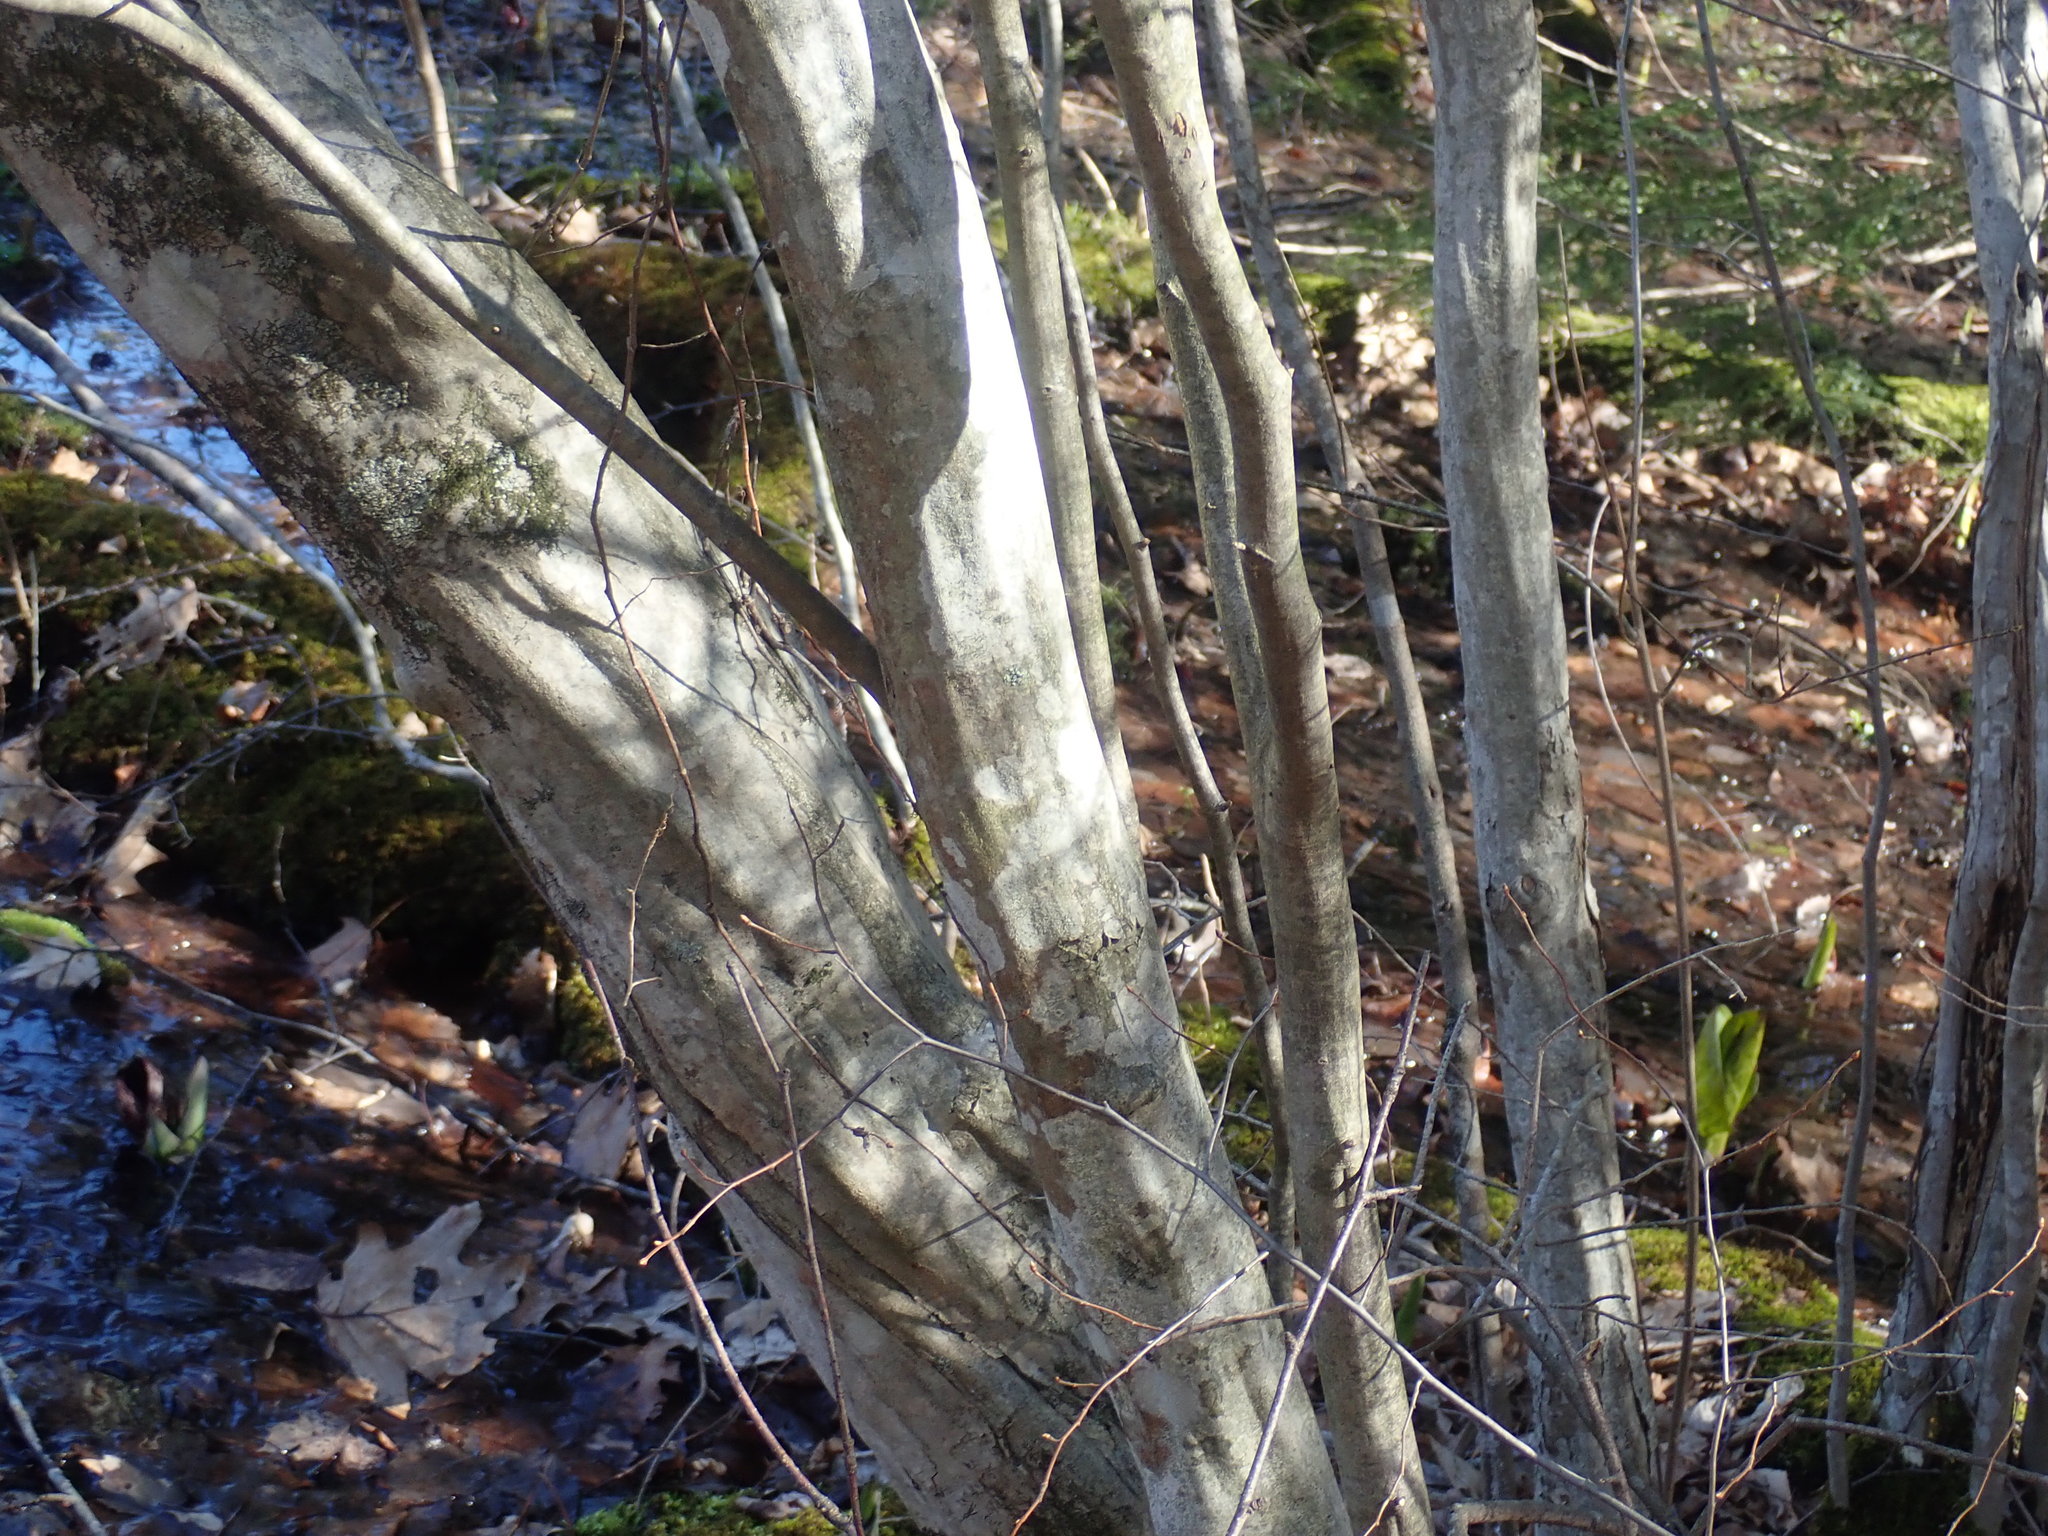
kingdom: Plantae
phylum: Tracheophyta
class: Magnoliopsida
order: Fagales
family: Betulaceae
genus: Carpinus
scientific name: Carpinus caroliniana
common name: American hornbeam
